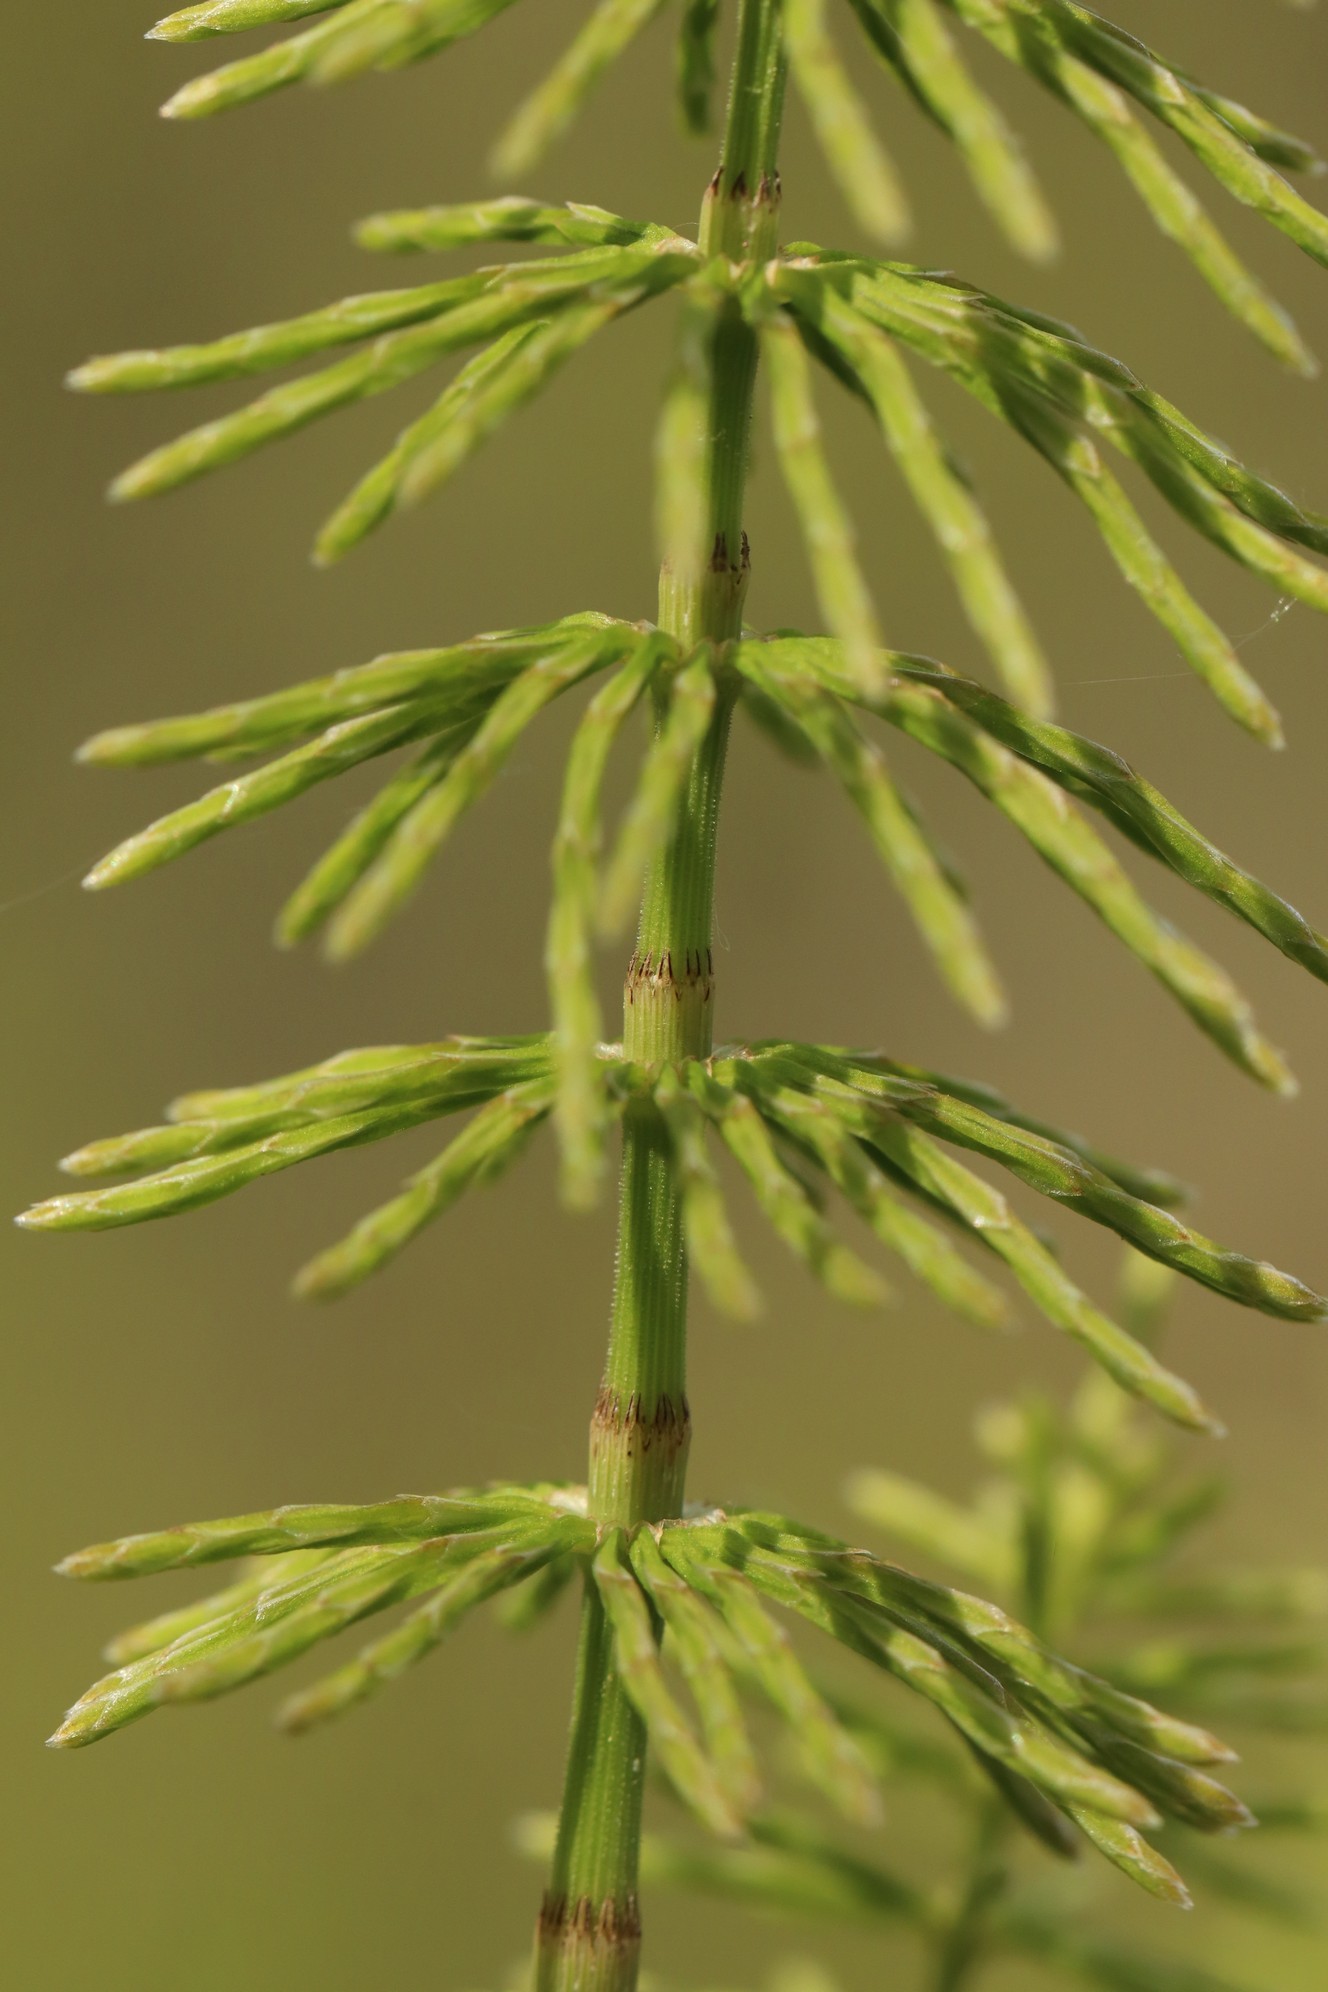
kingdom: Plantae
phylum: Tracheophyta
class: Polypodiopsida
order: Equisetales
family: Equisetaceae
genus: Equisetum
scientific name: Equisetum pratense
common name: Meadow horsetail
